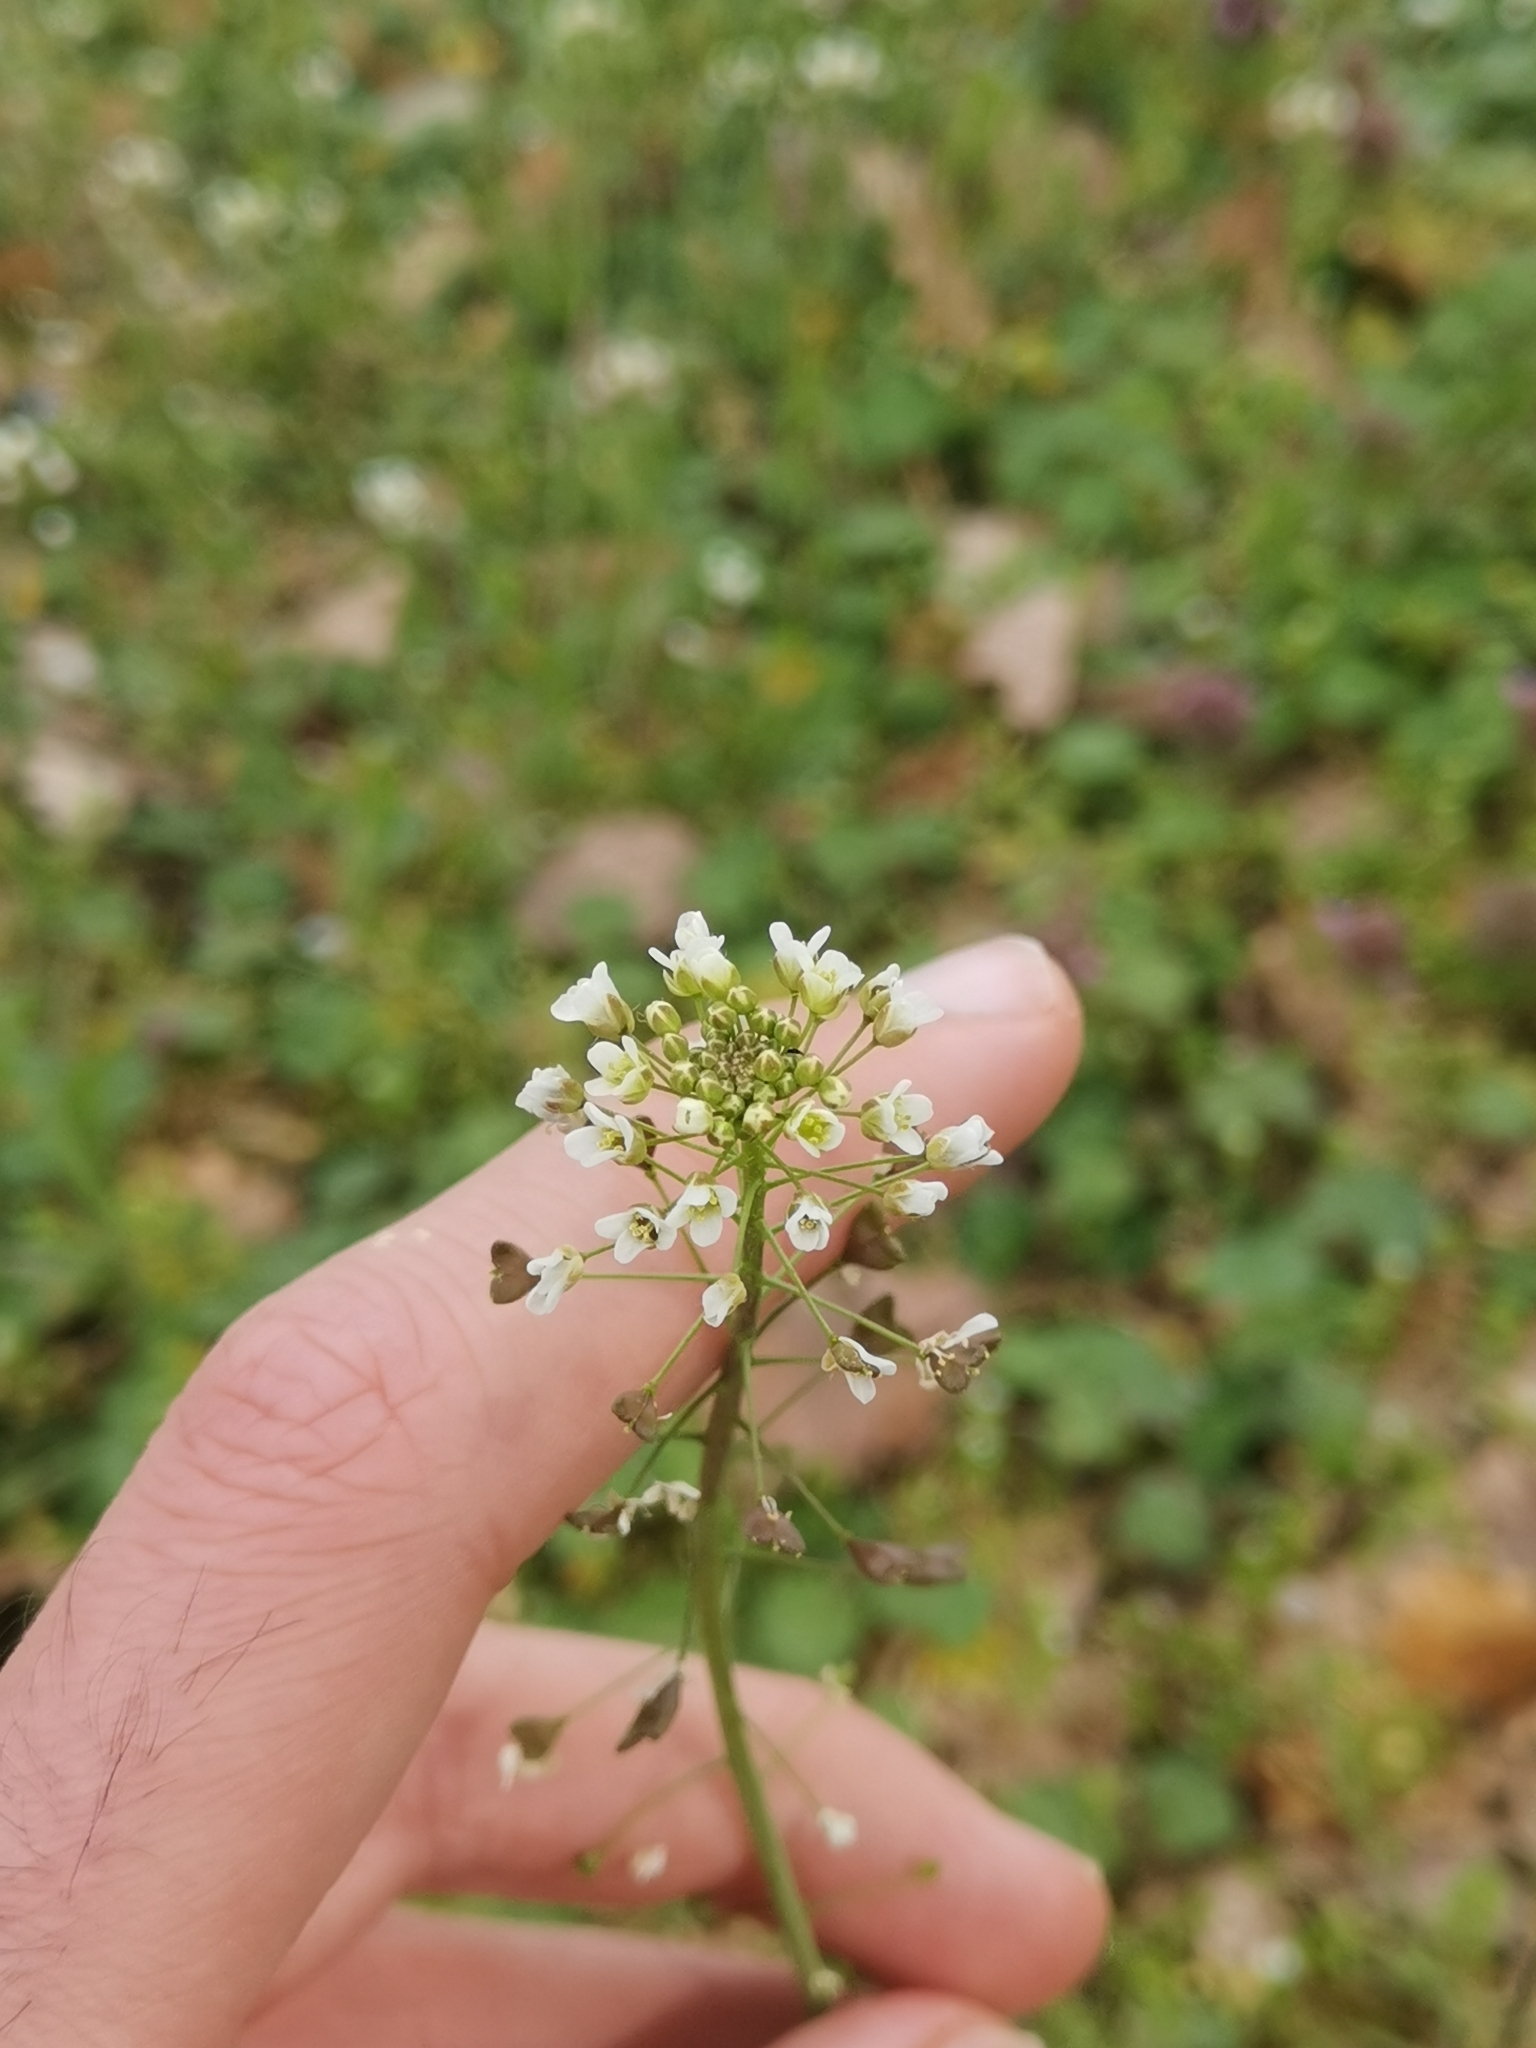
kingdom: Plantae
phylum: Tracheophyta
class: Magnoliopsida
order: Brassicales
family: Brassicaceae
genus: Capsella
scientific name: Capsella bursa-pastoris
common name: Shepherd's purse
